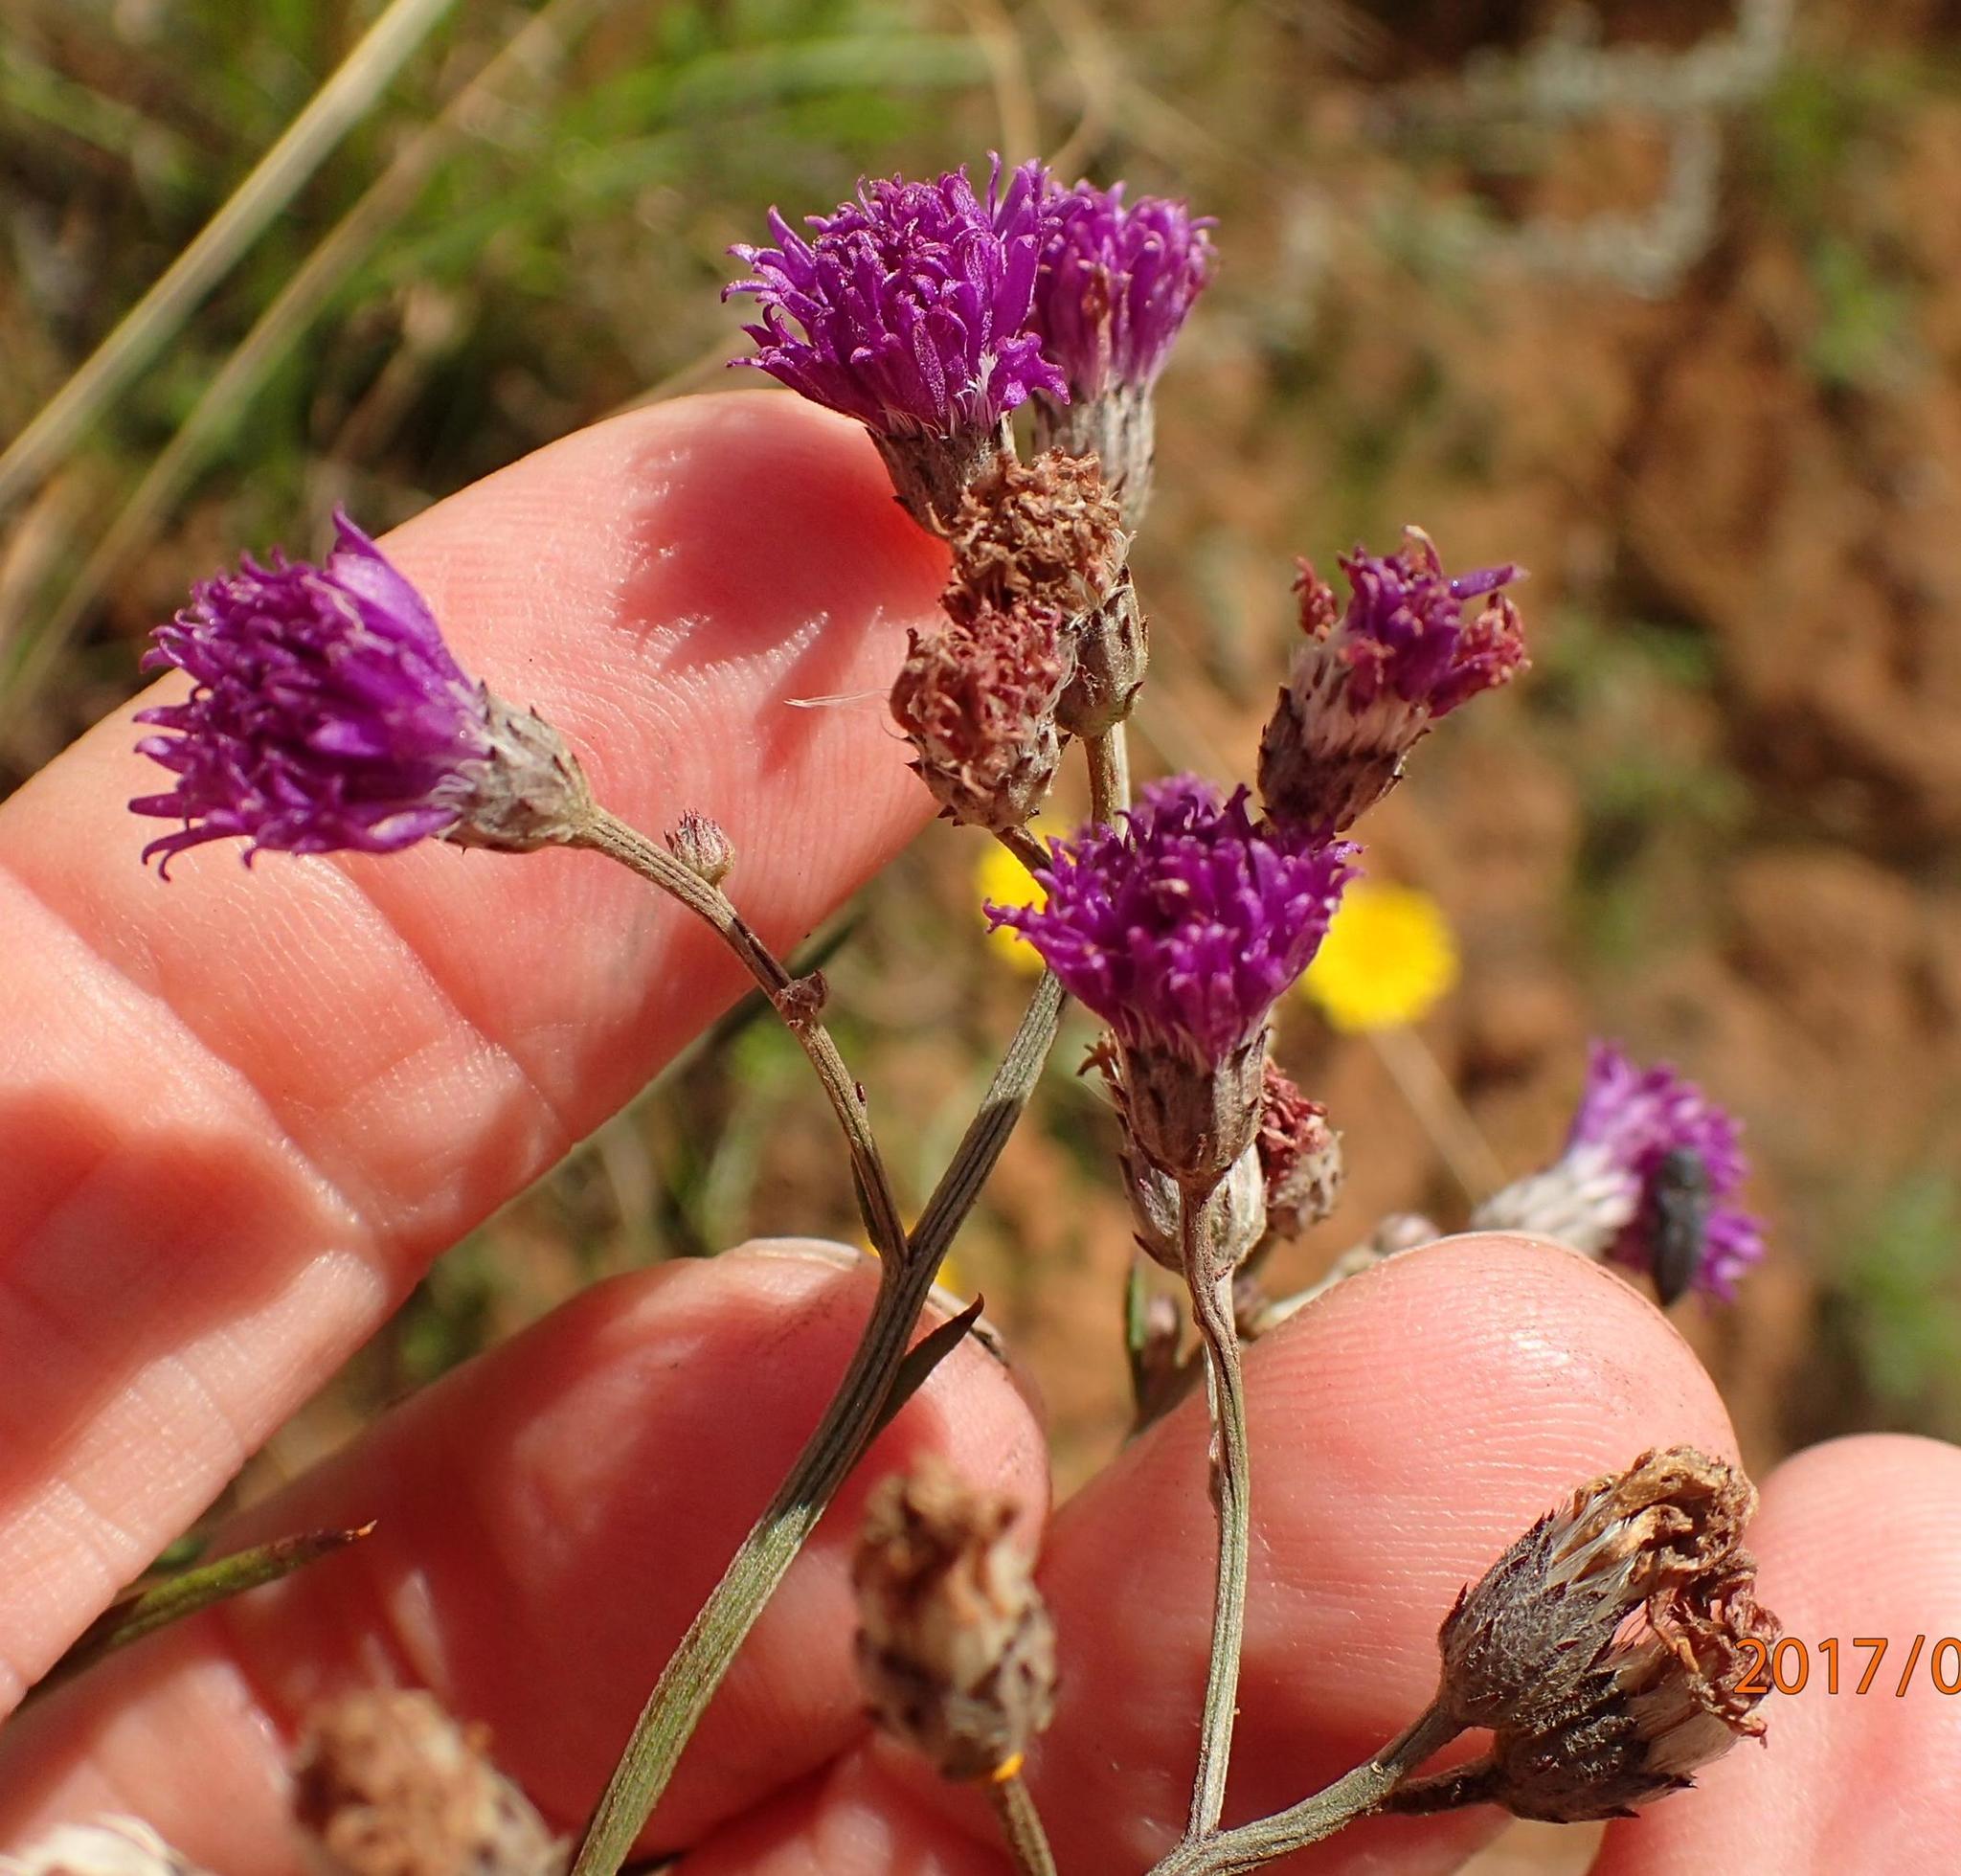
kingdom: Plantae
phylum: Tracheophyta
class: Magnoliopsida
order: Asterales
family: Asteraceae
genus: Hilliardiella
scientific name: Hilliardiella capensis
